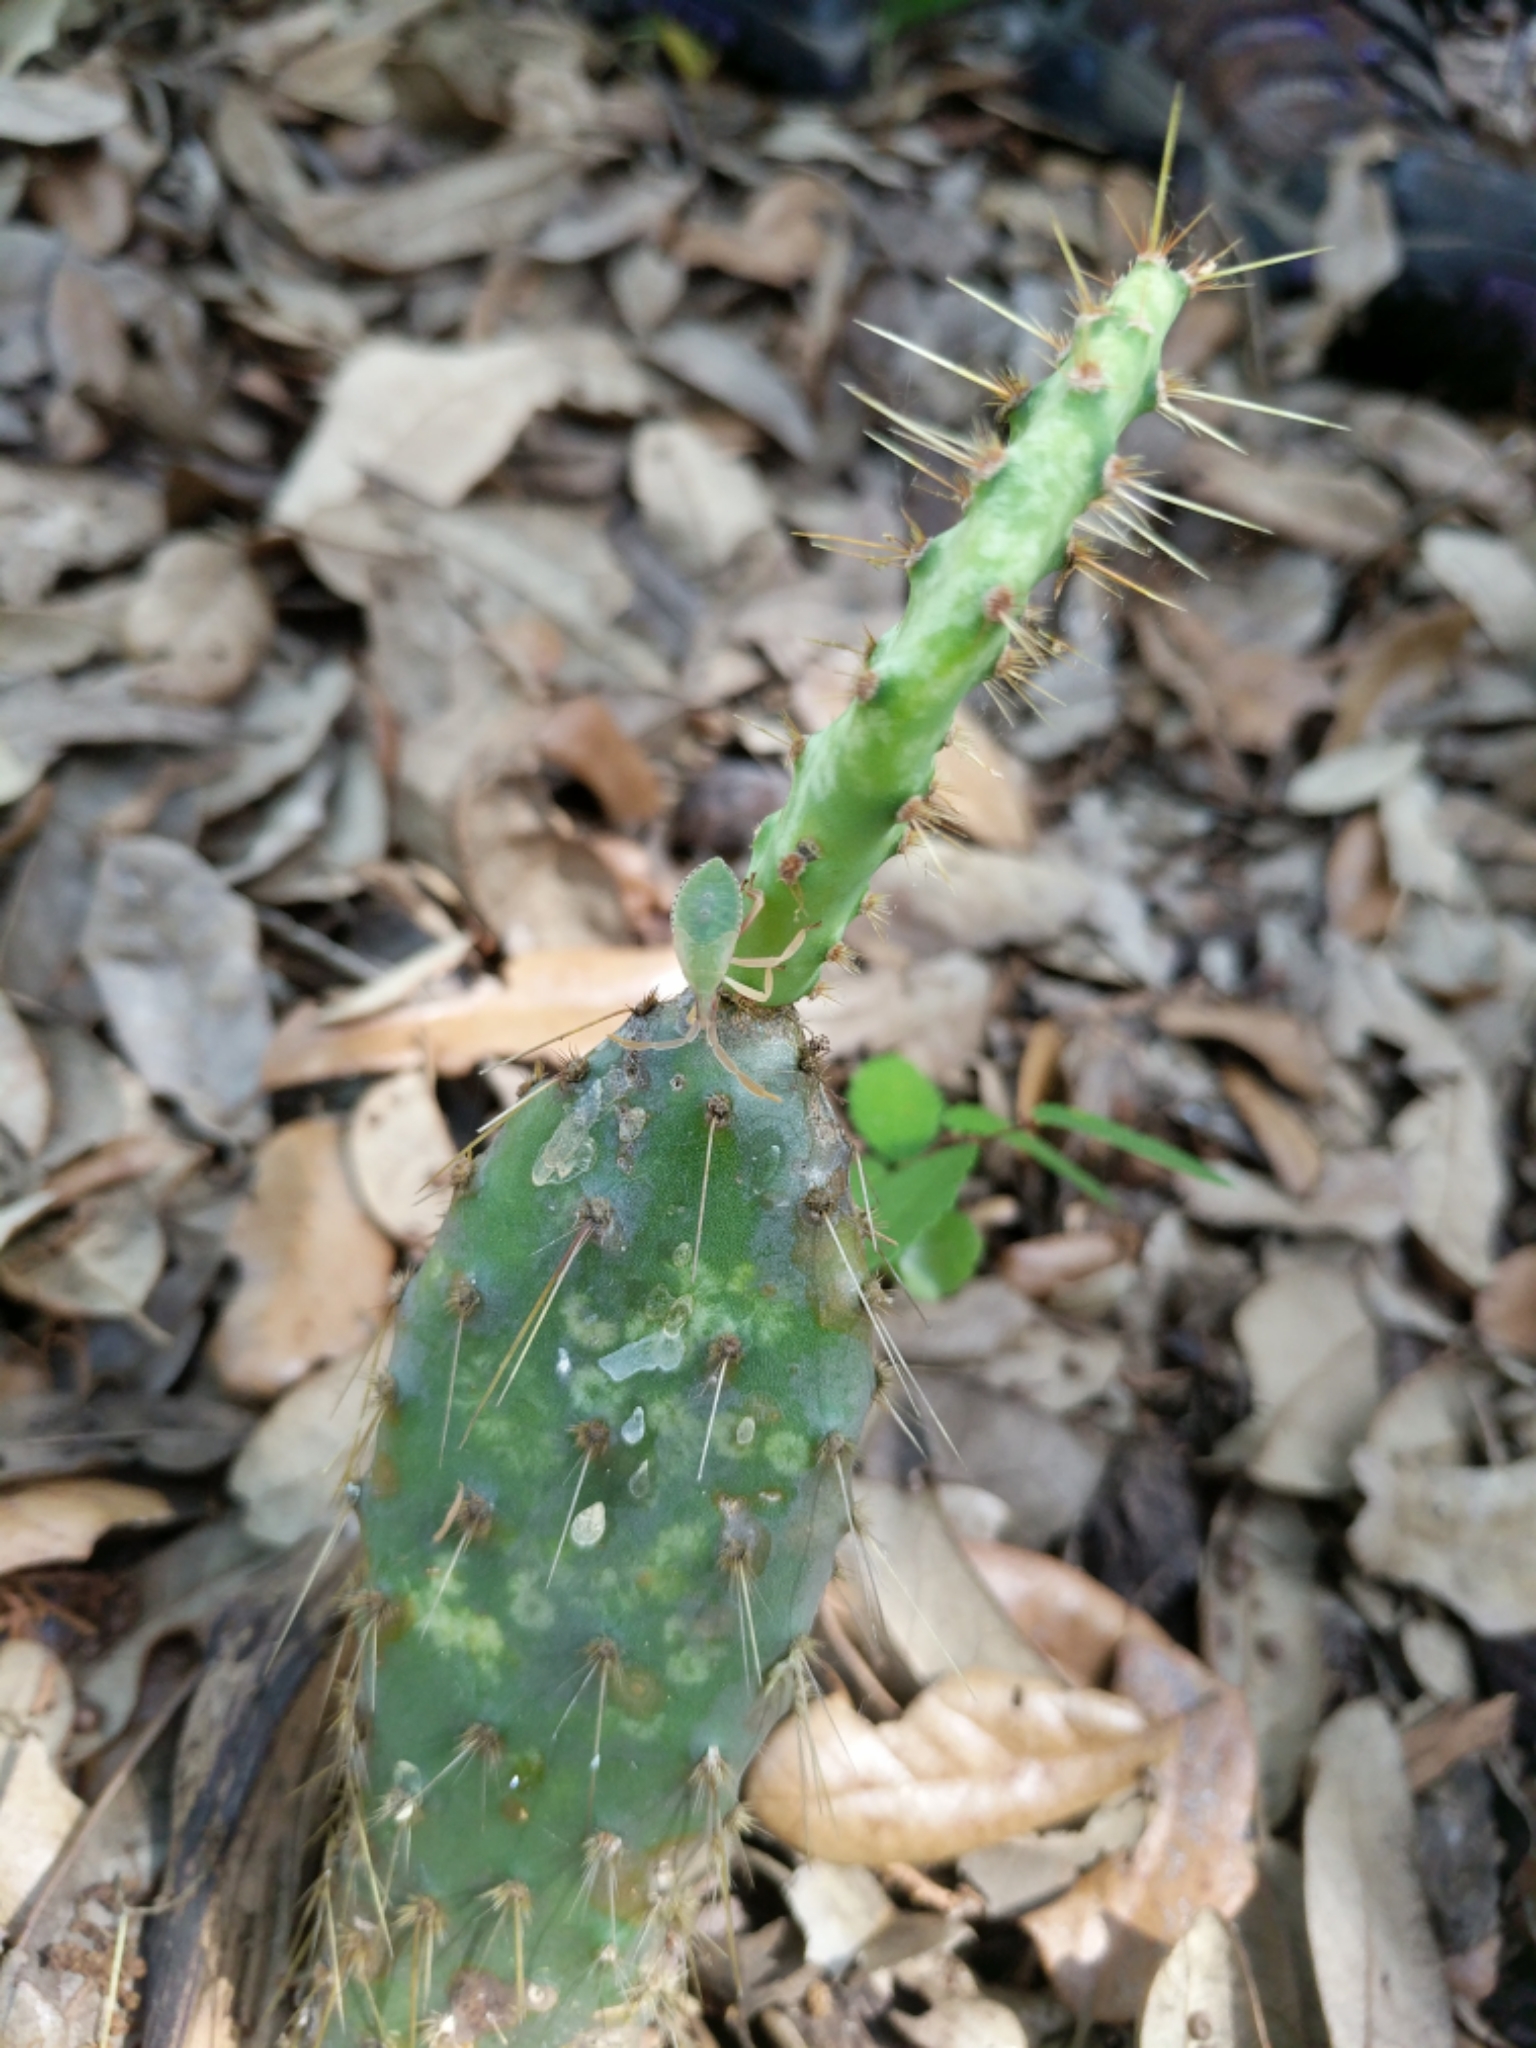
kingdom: Animalia
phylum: Arthropoda
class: Insecta
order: Hemiptera
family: Coreidae
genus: Chelinidea
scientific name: Chelinidea tabulata
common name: Prickly pear bug
